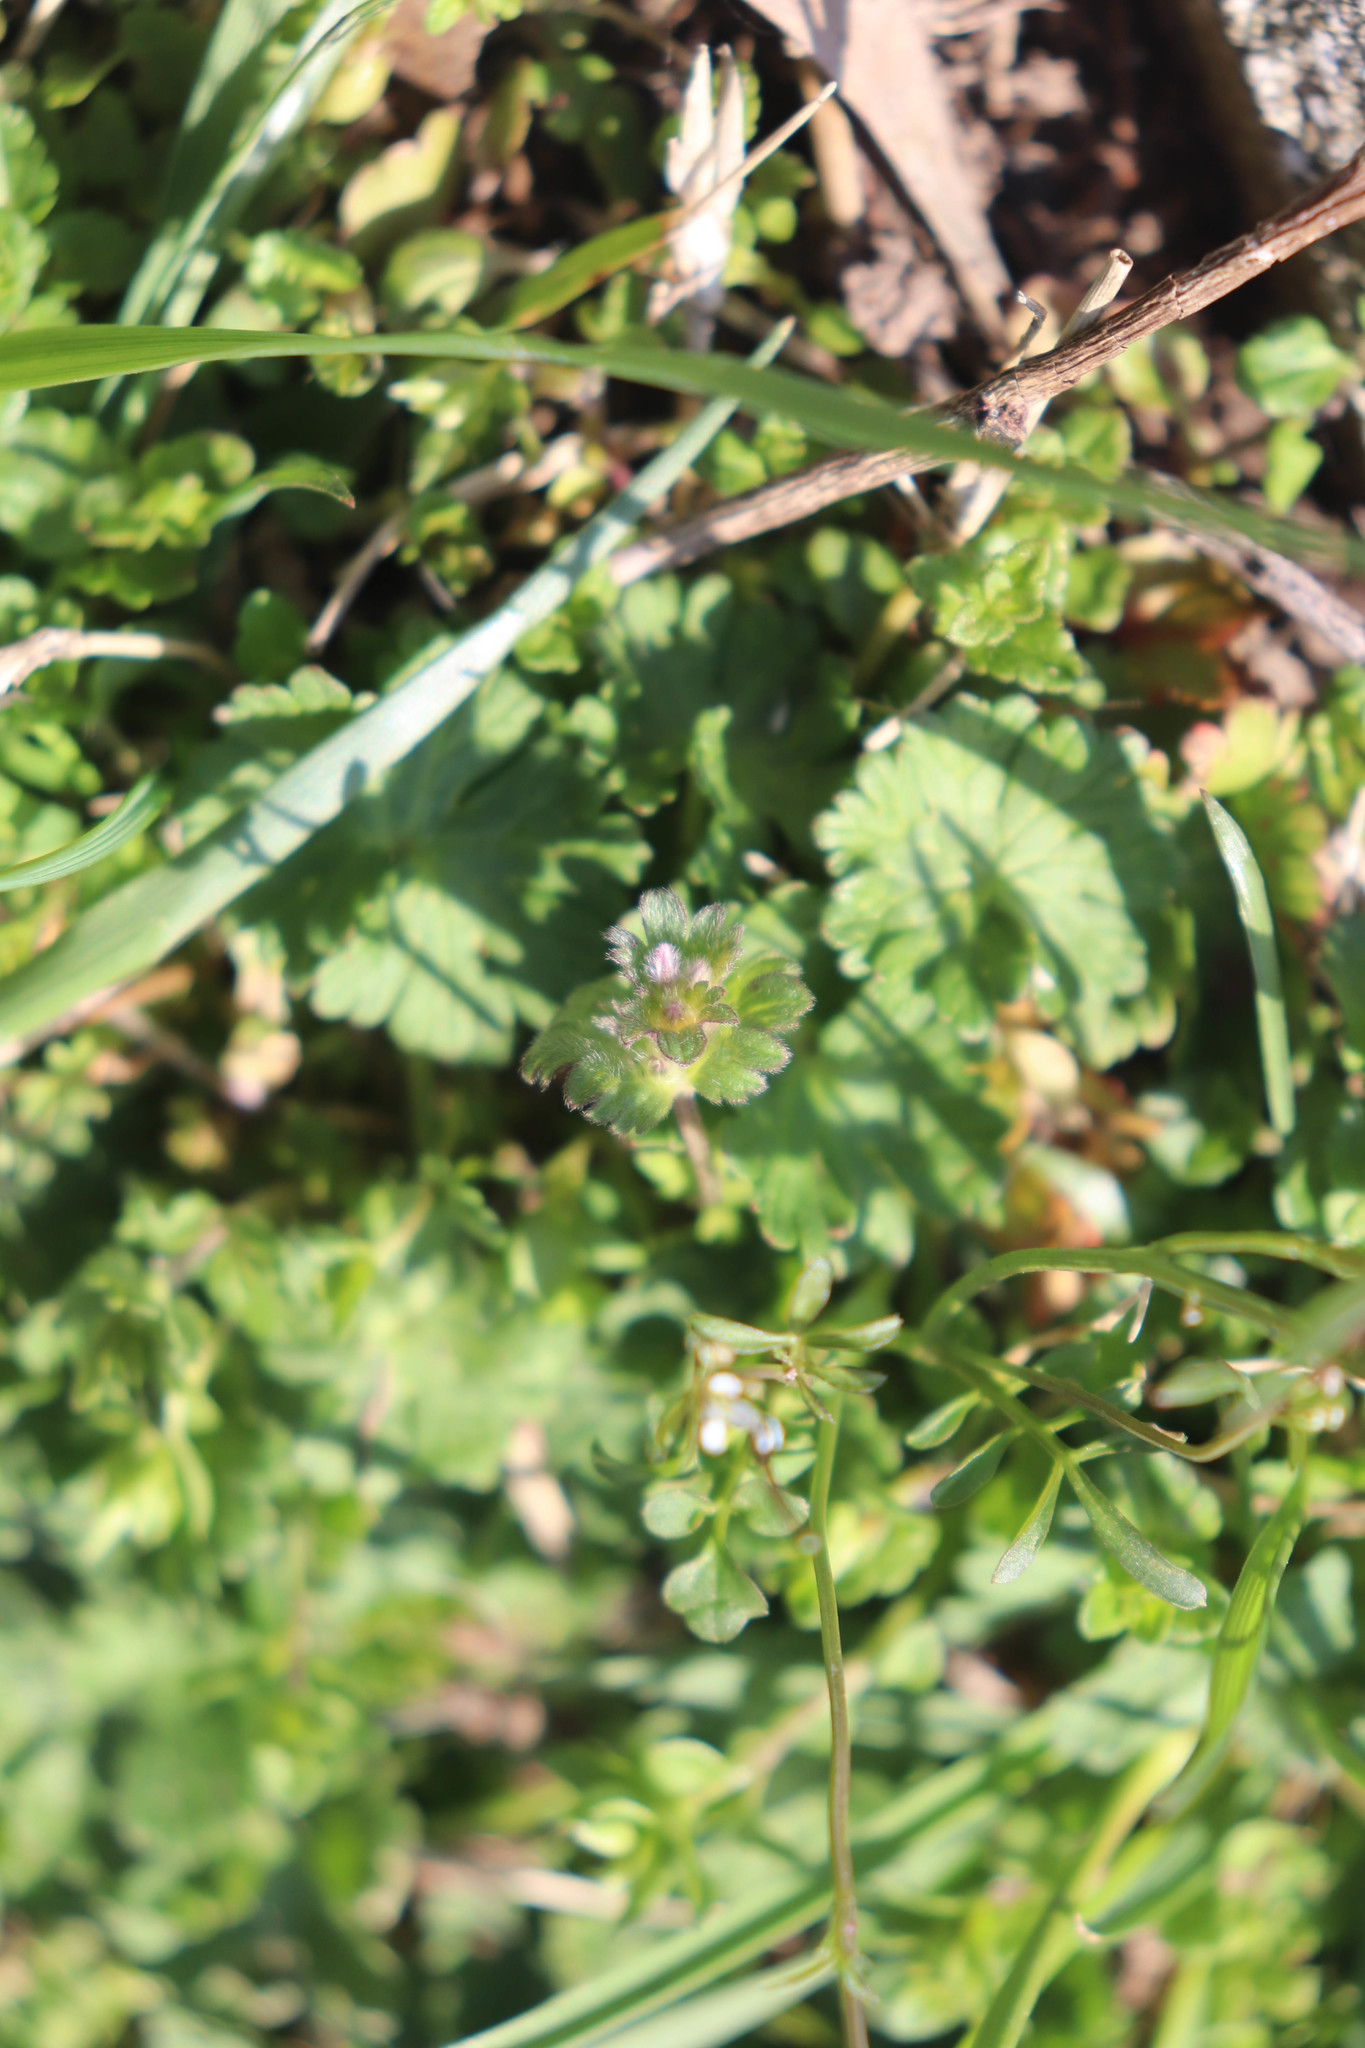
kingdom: Plantae
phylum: Tracheophyta
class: Magnoliopsida
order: Lamiales
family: Lamiaceae
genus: Lamium
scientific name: Lamium amplexicaule
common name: Henbit dead-nettle
